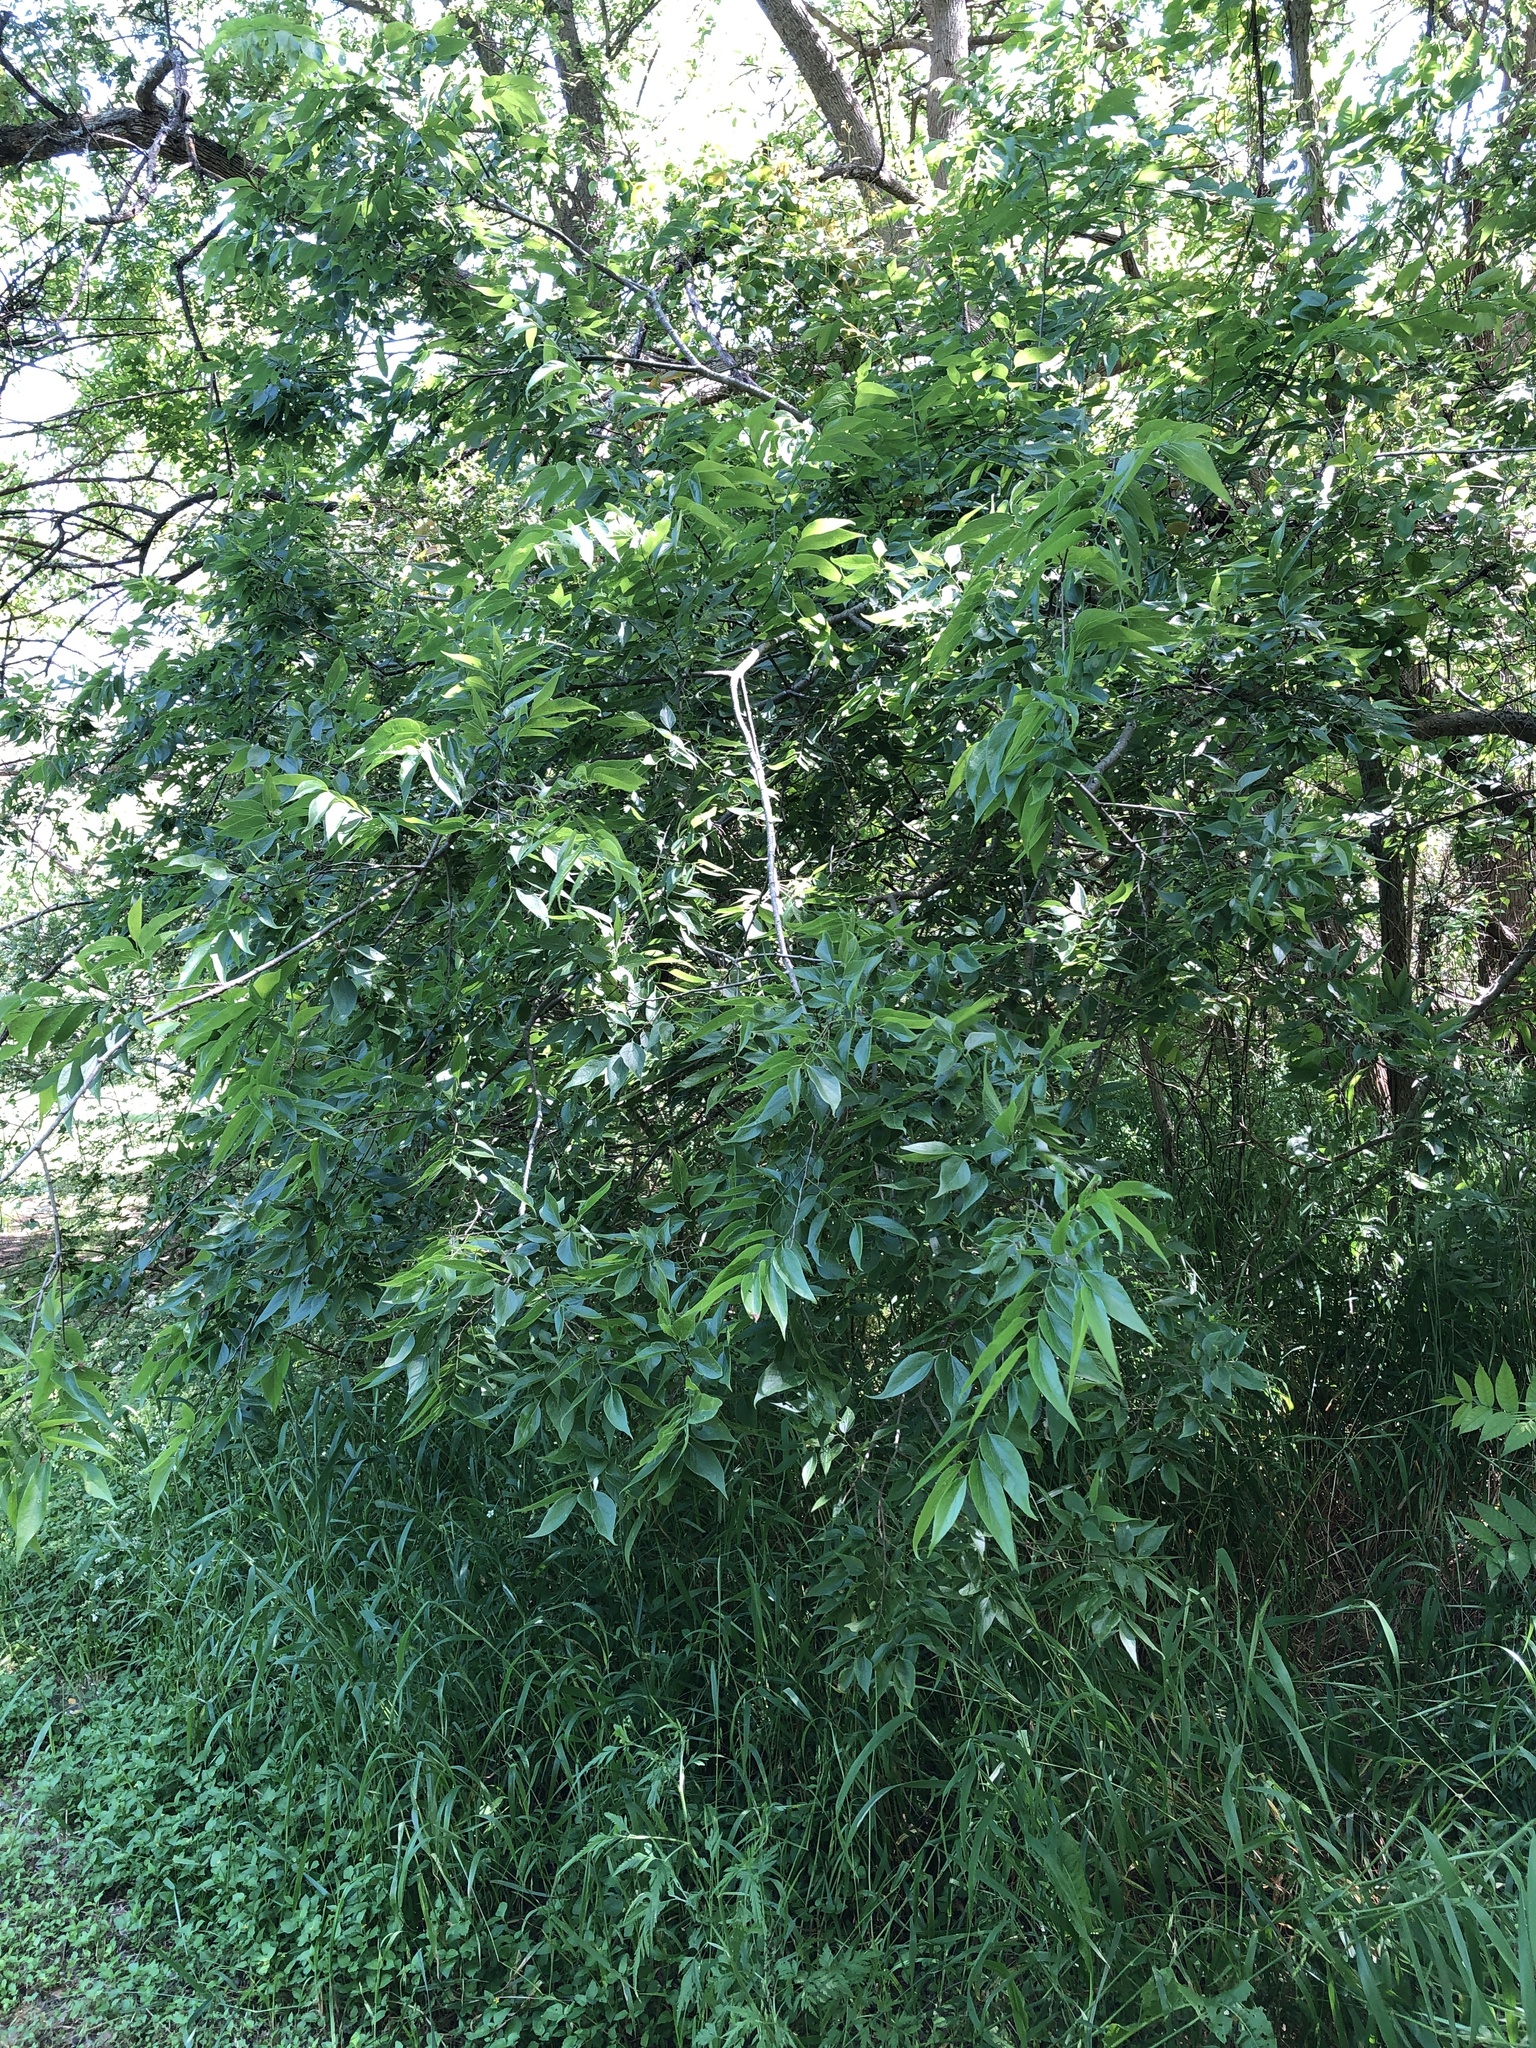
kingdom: Plantae
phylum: Tracheophyta
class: Magnoliopsida
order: Rosales
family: Cannabaceae
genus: Celtis
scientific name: Celtis laevigata
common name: Sugarberry
